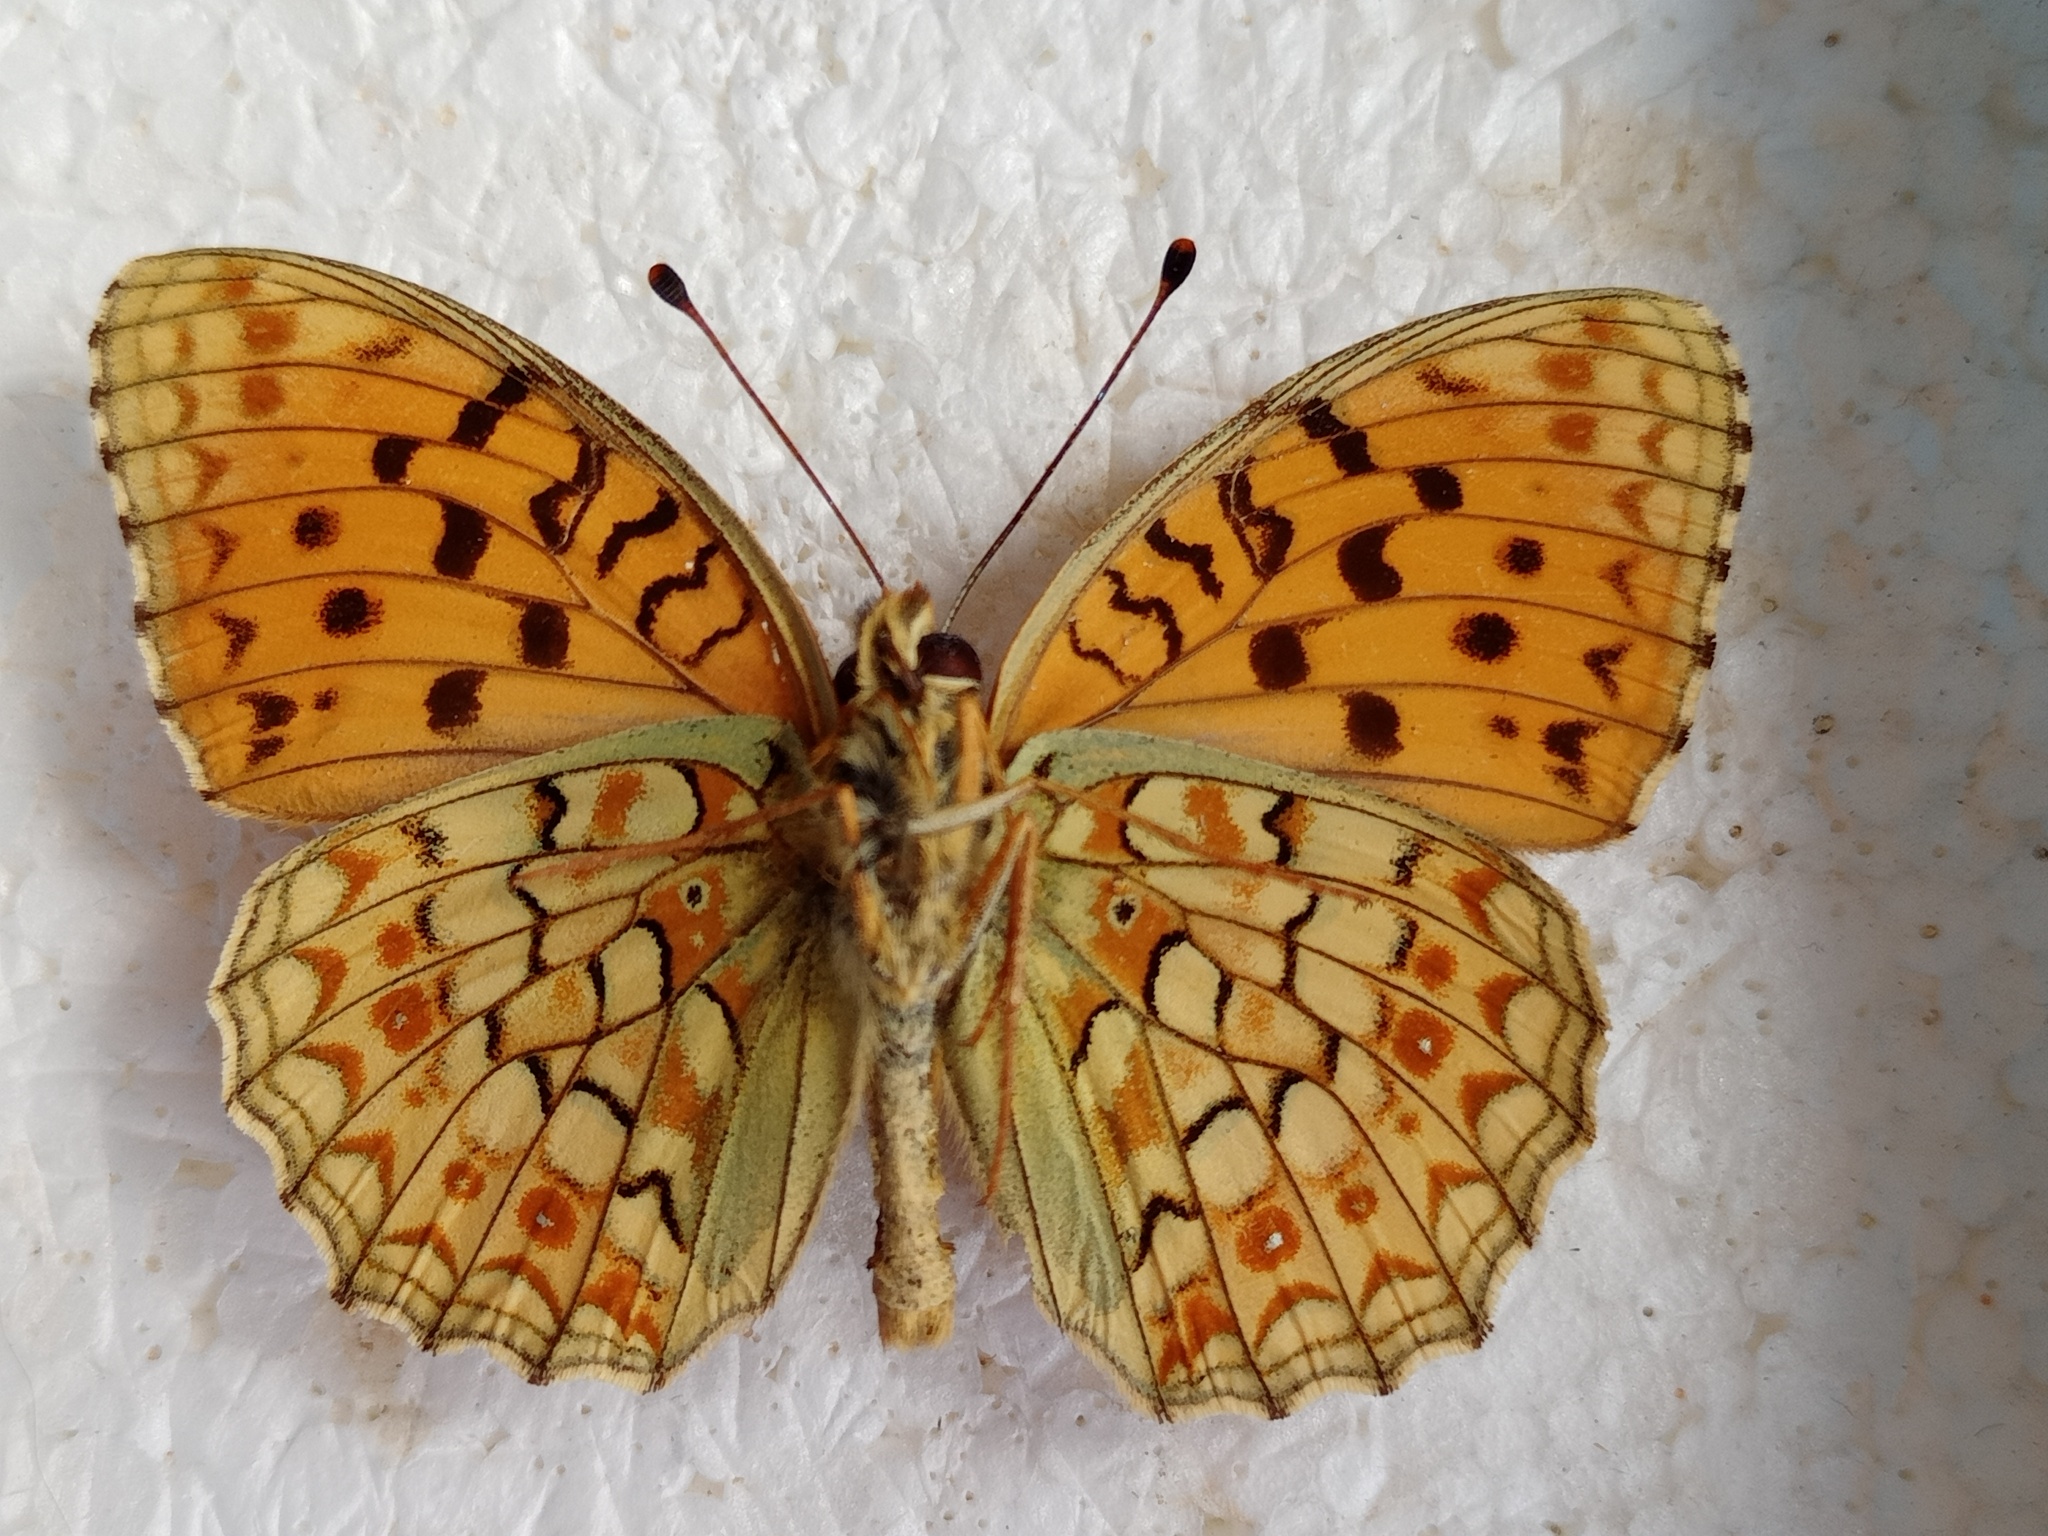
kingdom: Animalia
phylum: Arthropoda
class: Insecta
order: Lepidoptera
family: Nymphalidae
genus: Fabriciana
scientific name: Fabriciana niobe
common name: Niobe fritillary
